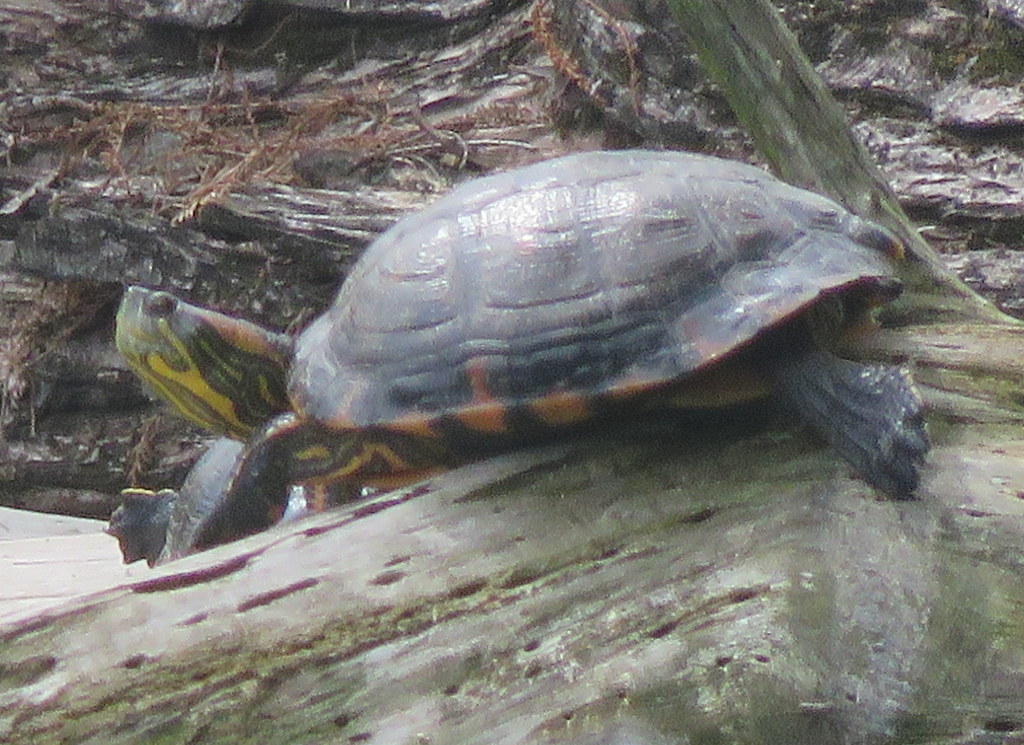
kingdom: Animalia
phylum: Chordata
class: Testudines
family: Emydidae
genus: Trachemys
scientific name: Trachemys dorbigni
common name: Black-bellied slider
